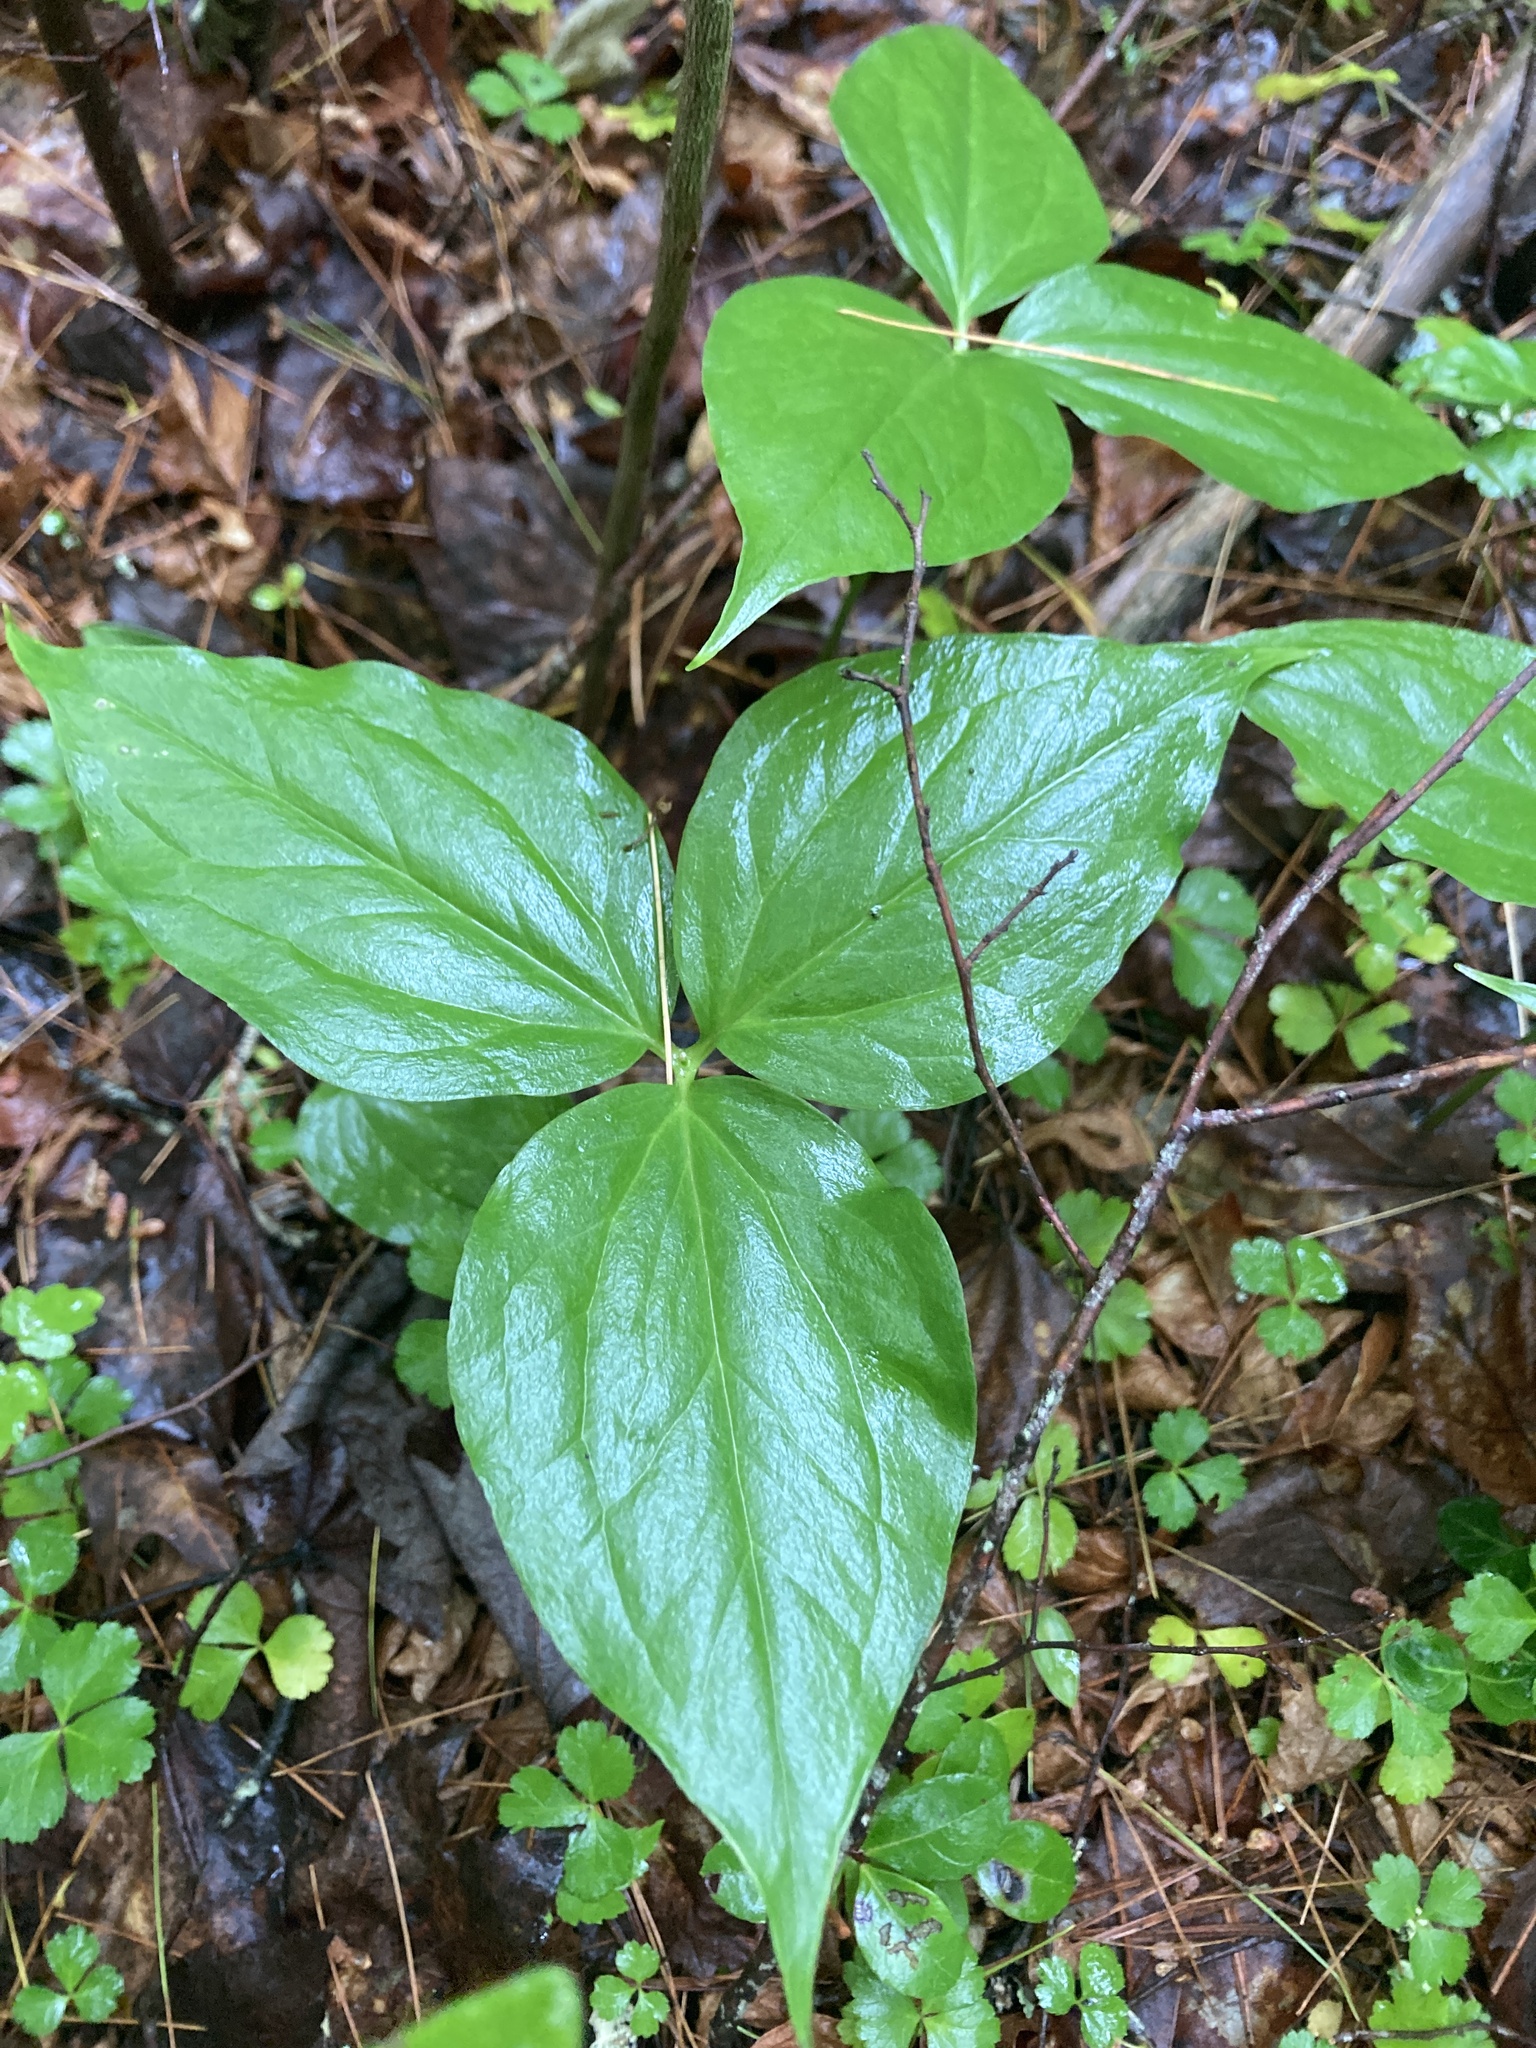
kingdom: Plantae
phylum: Tracheophyta
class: Liliopsida
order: Liliales
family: Melanthiaceae
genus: Trillium
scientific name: Trillium undulatum
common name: Paint trillium
